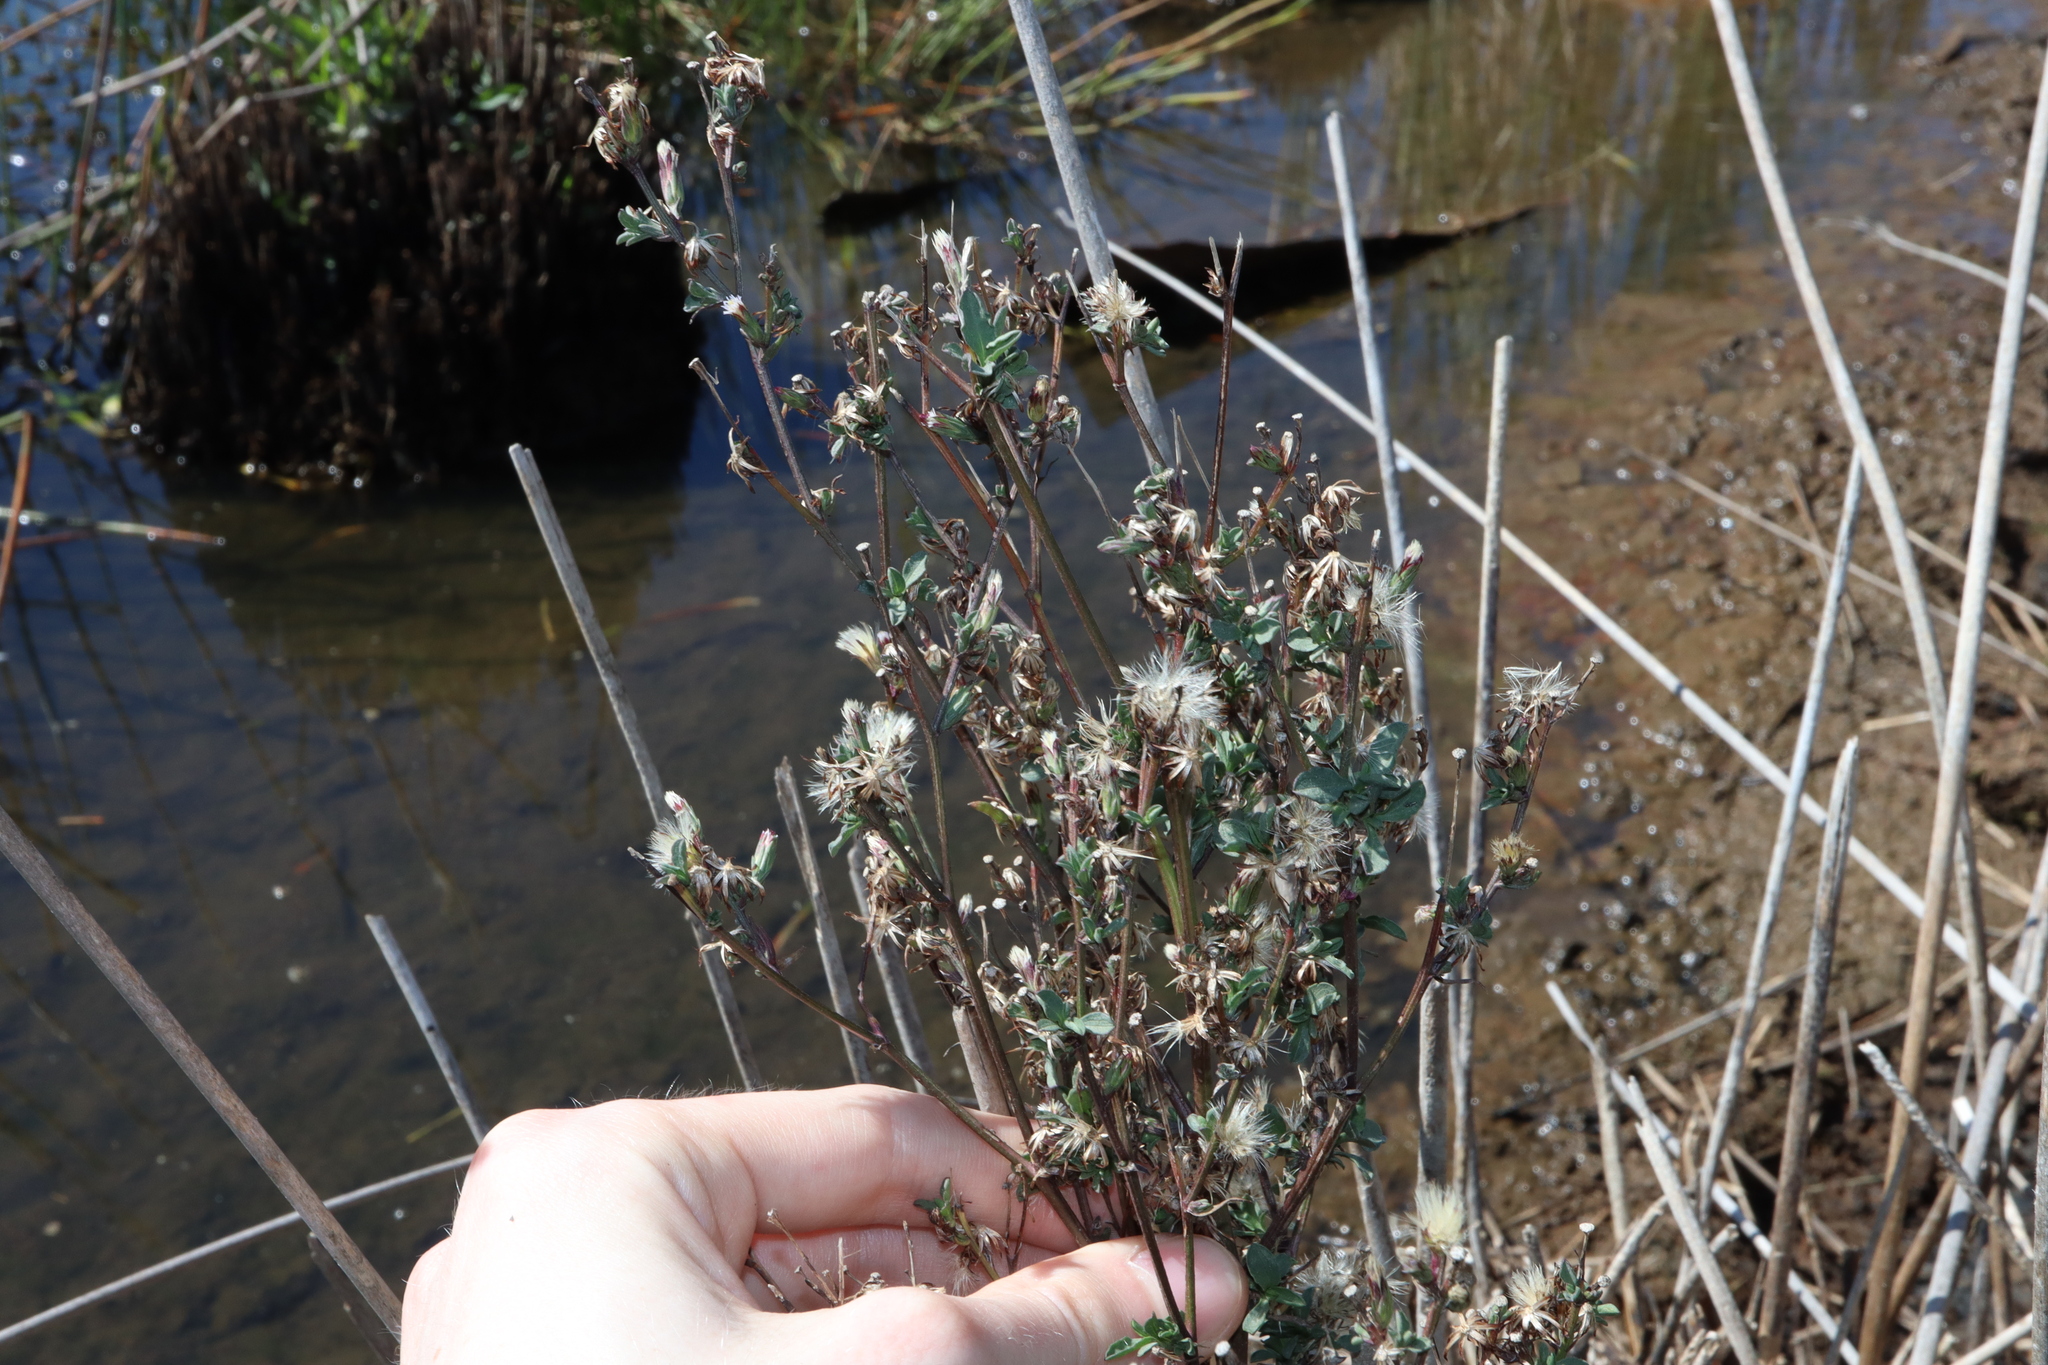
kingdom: Plantae
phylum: Tracheophyta
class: Magnoliopsida
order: Asterales
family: Asteraceae
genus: Symphyotrichum
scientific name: Symphyotrichum subulatum
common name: Annual saltmarsh aster
